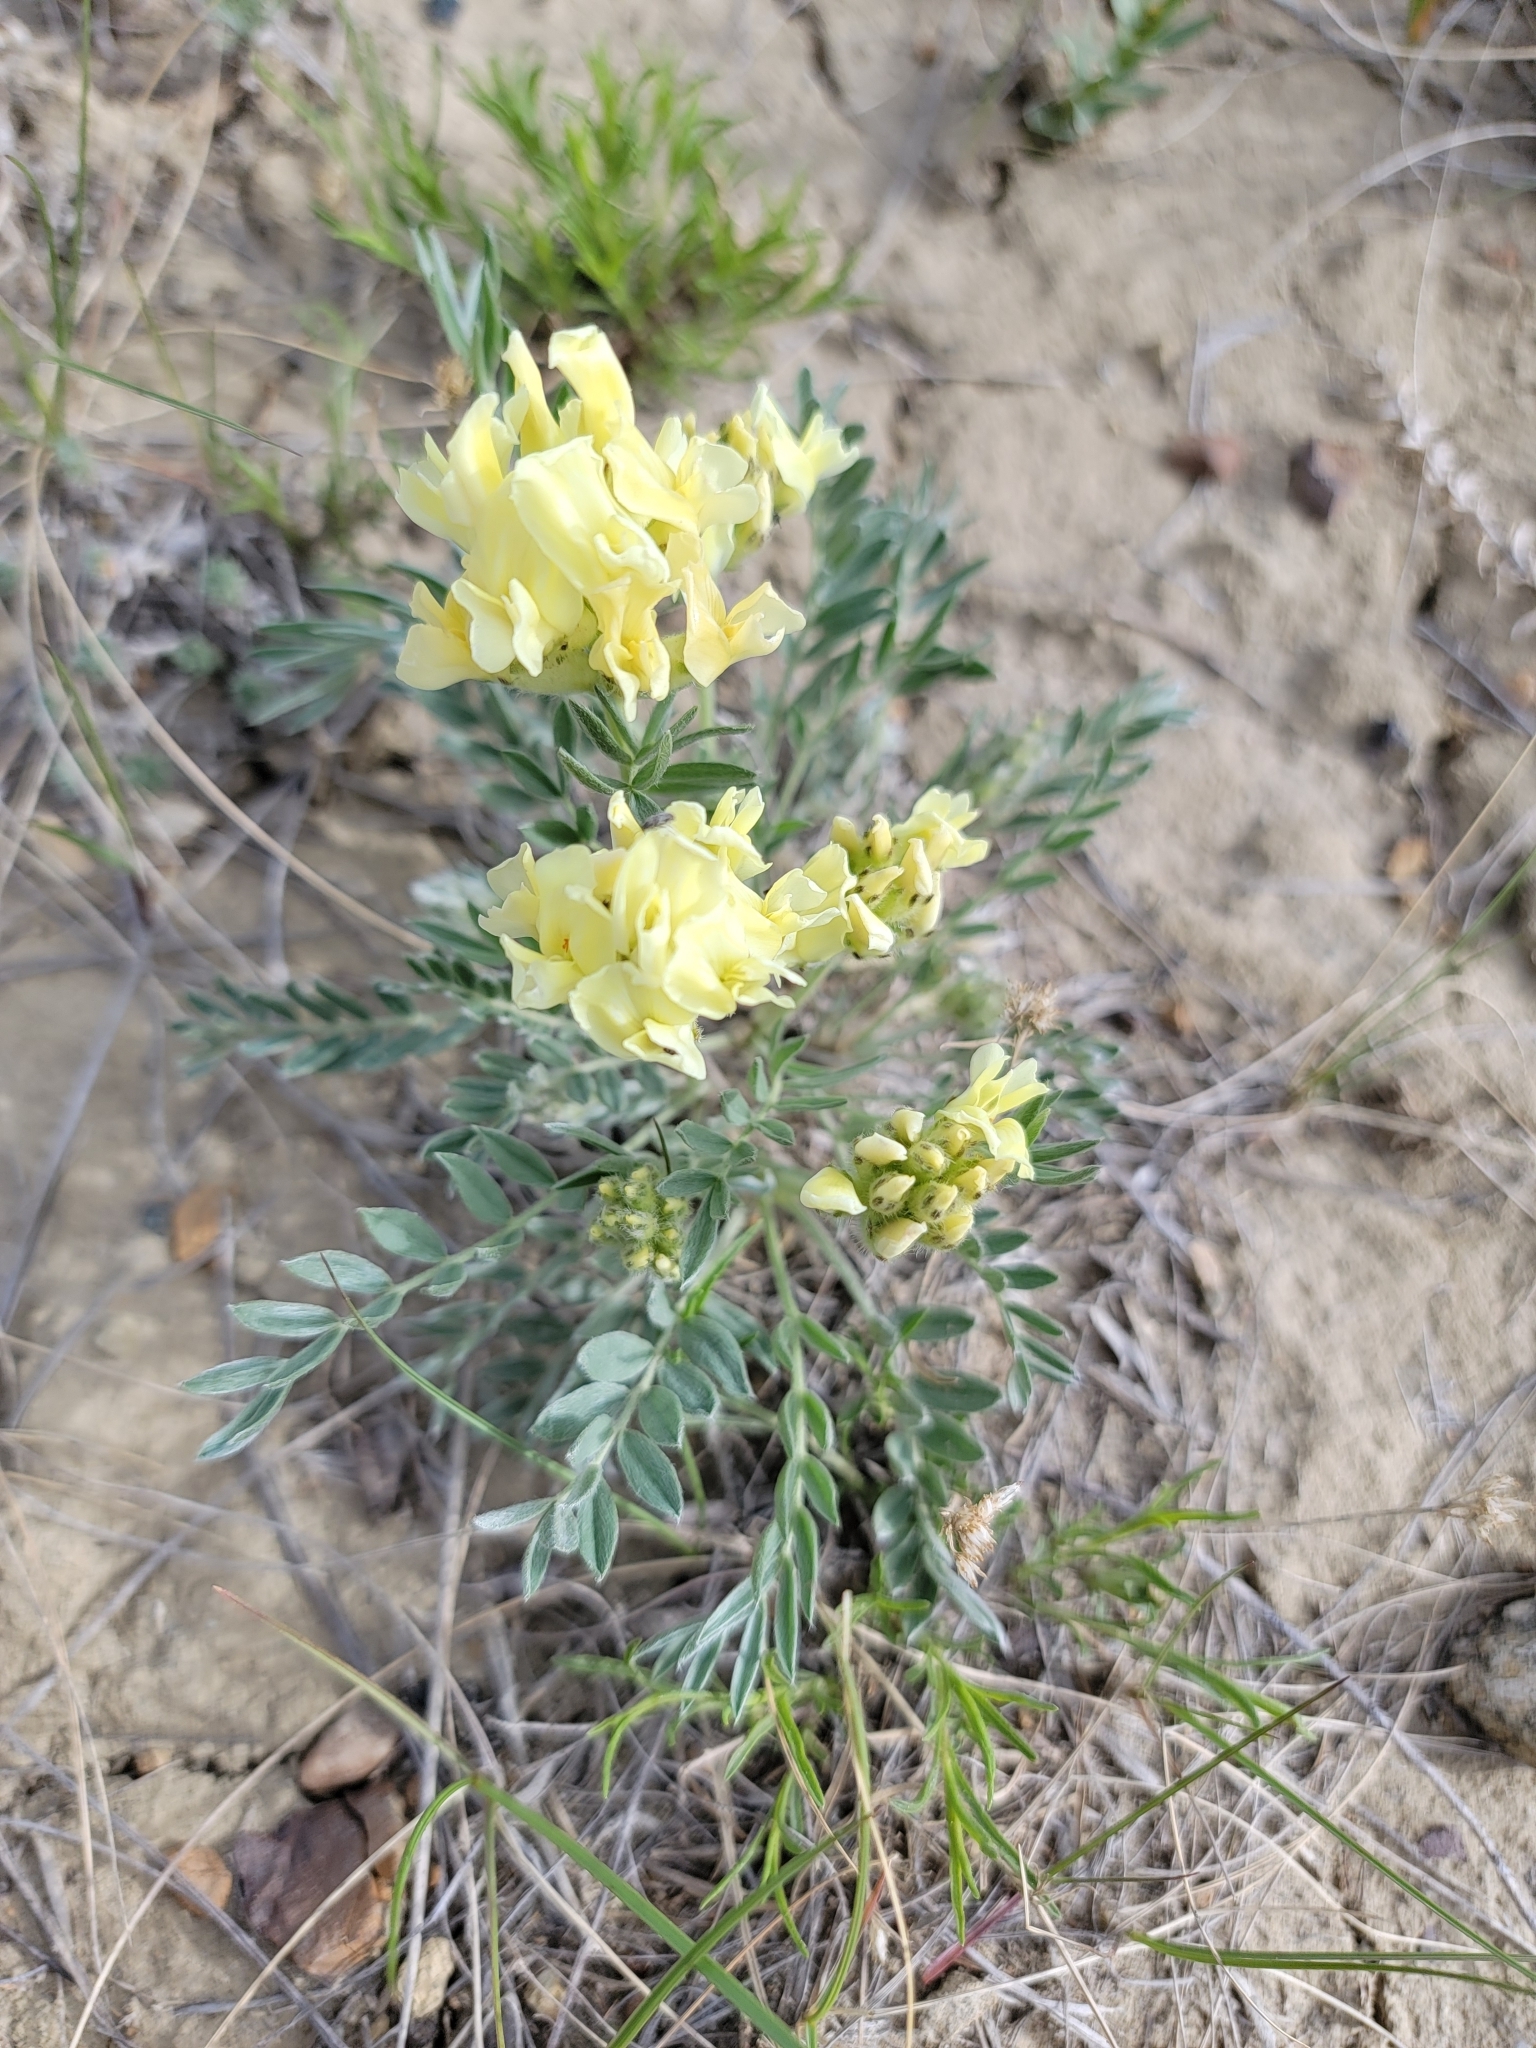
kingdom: Plantae
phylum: Tracheophyta
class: Magnoliopsida
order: Fabales
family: Fabaceae
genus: Oxytropis
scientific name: Oxytropis sericea
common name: Silky locoweed
